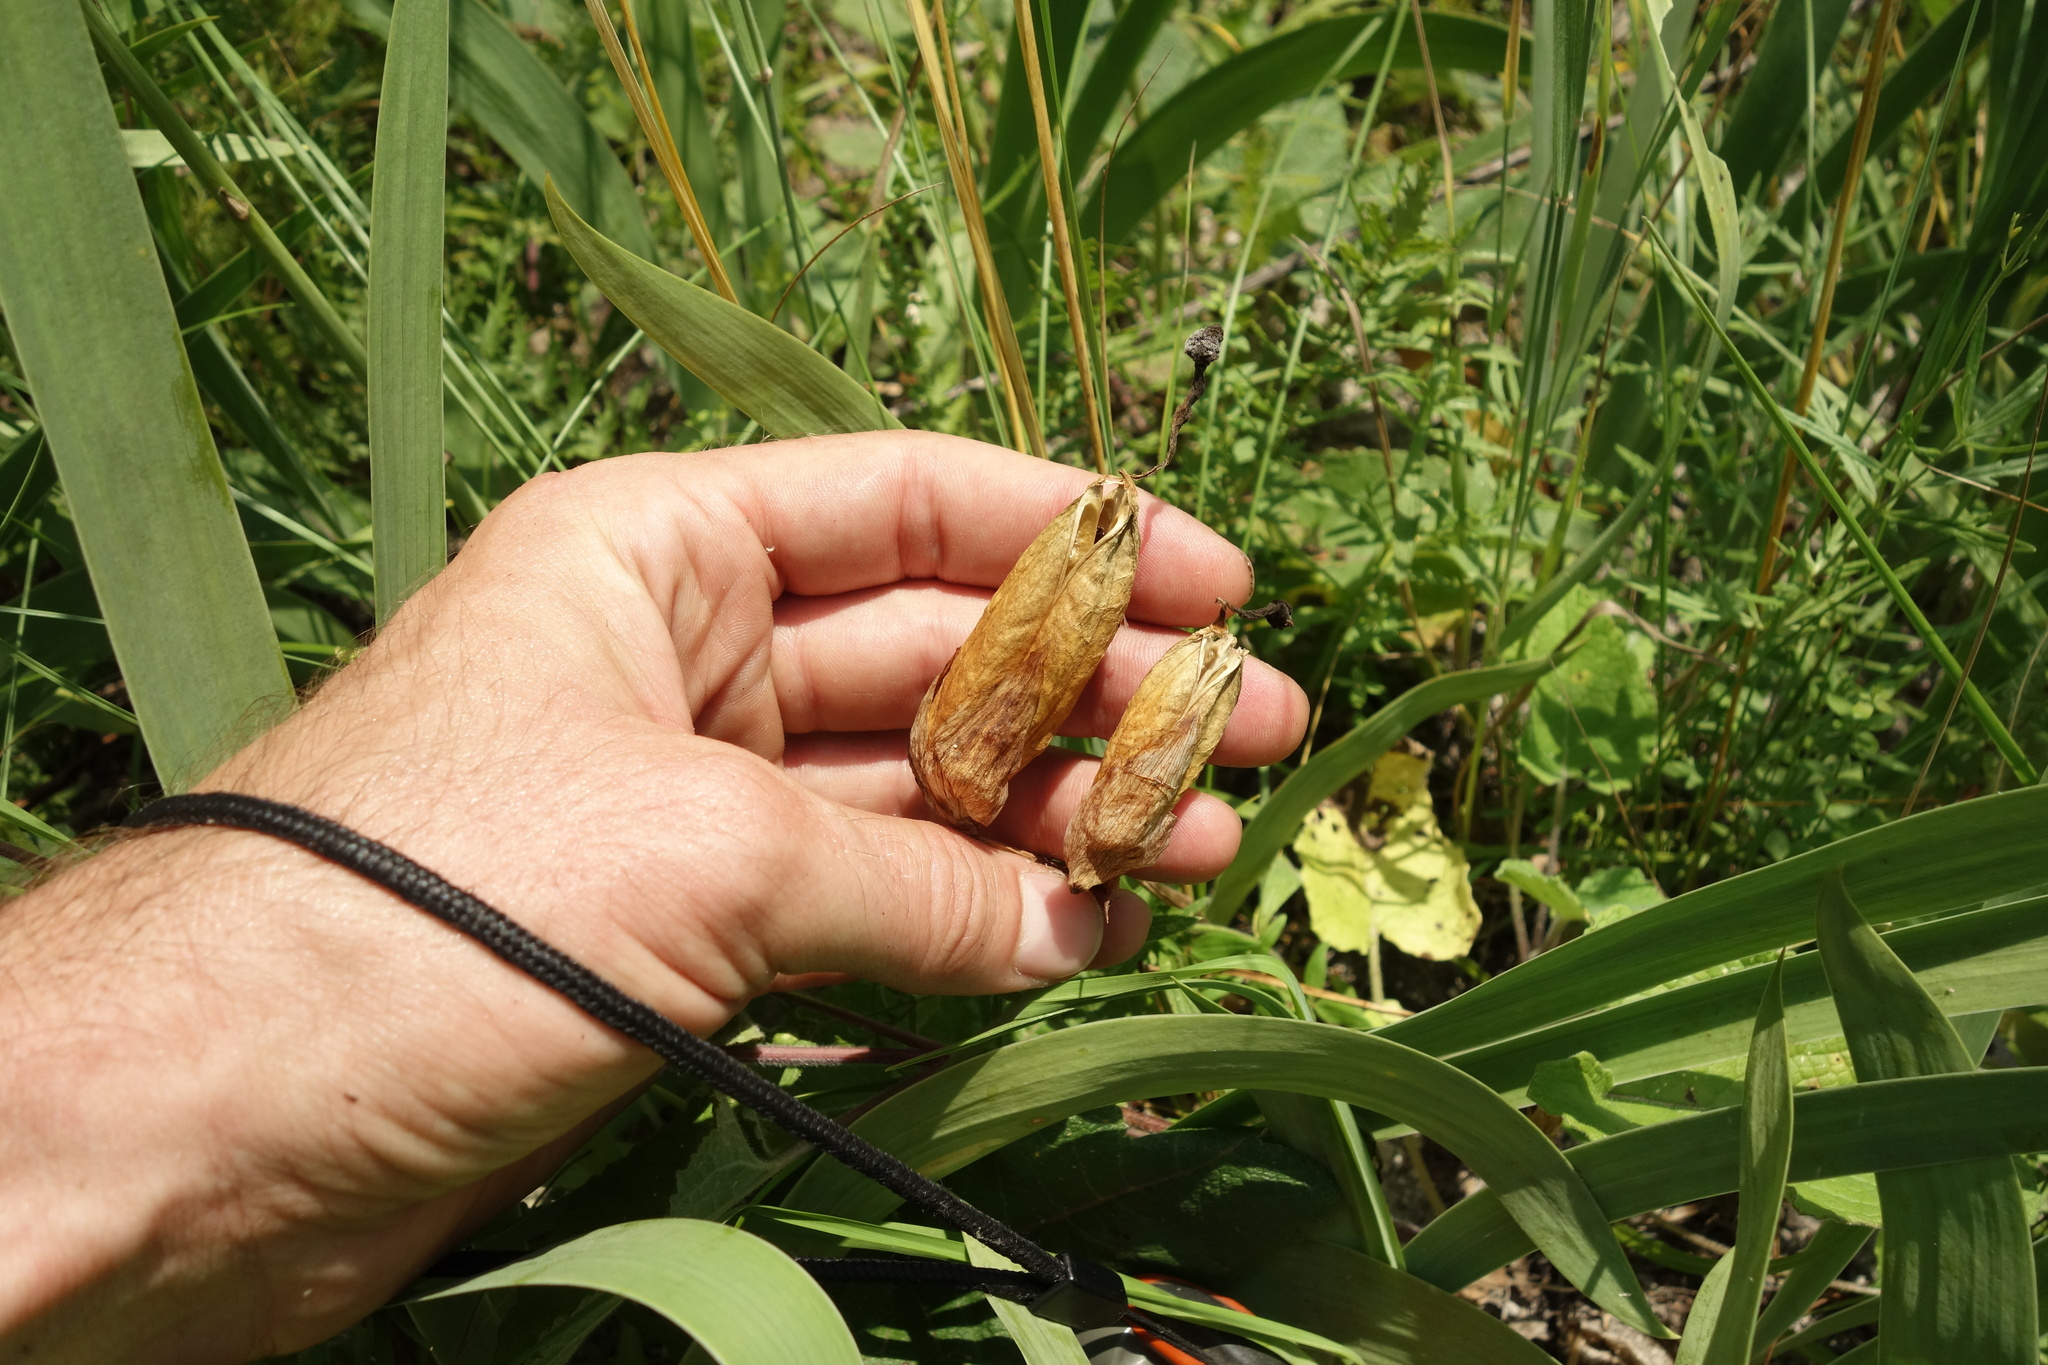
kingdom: Plantae
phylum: Tracheophyta
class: Liliopsida
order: Asparagales
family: Iridaceae
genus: Iris
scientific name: Iris aphylla
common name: Stool iris
